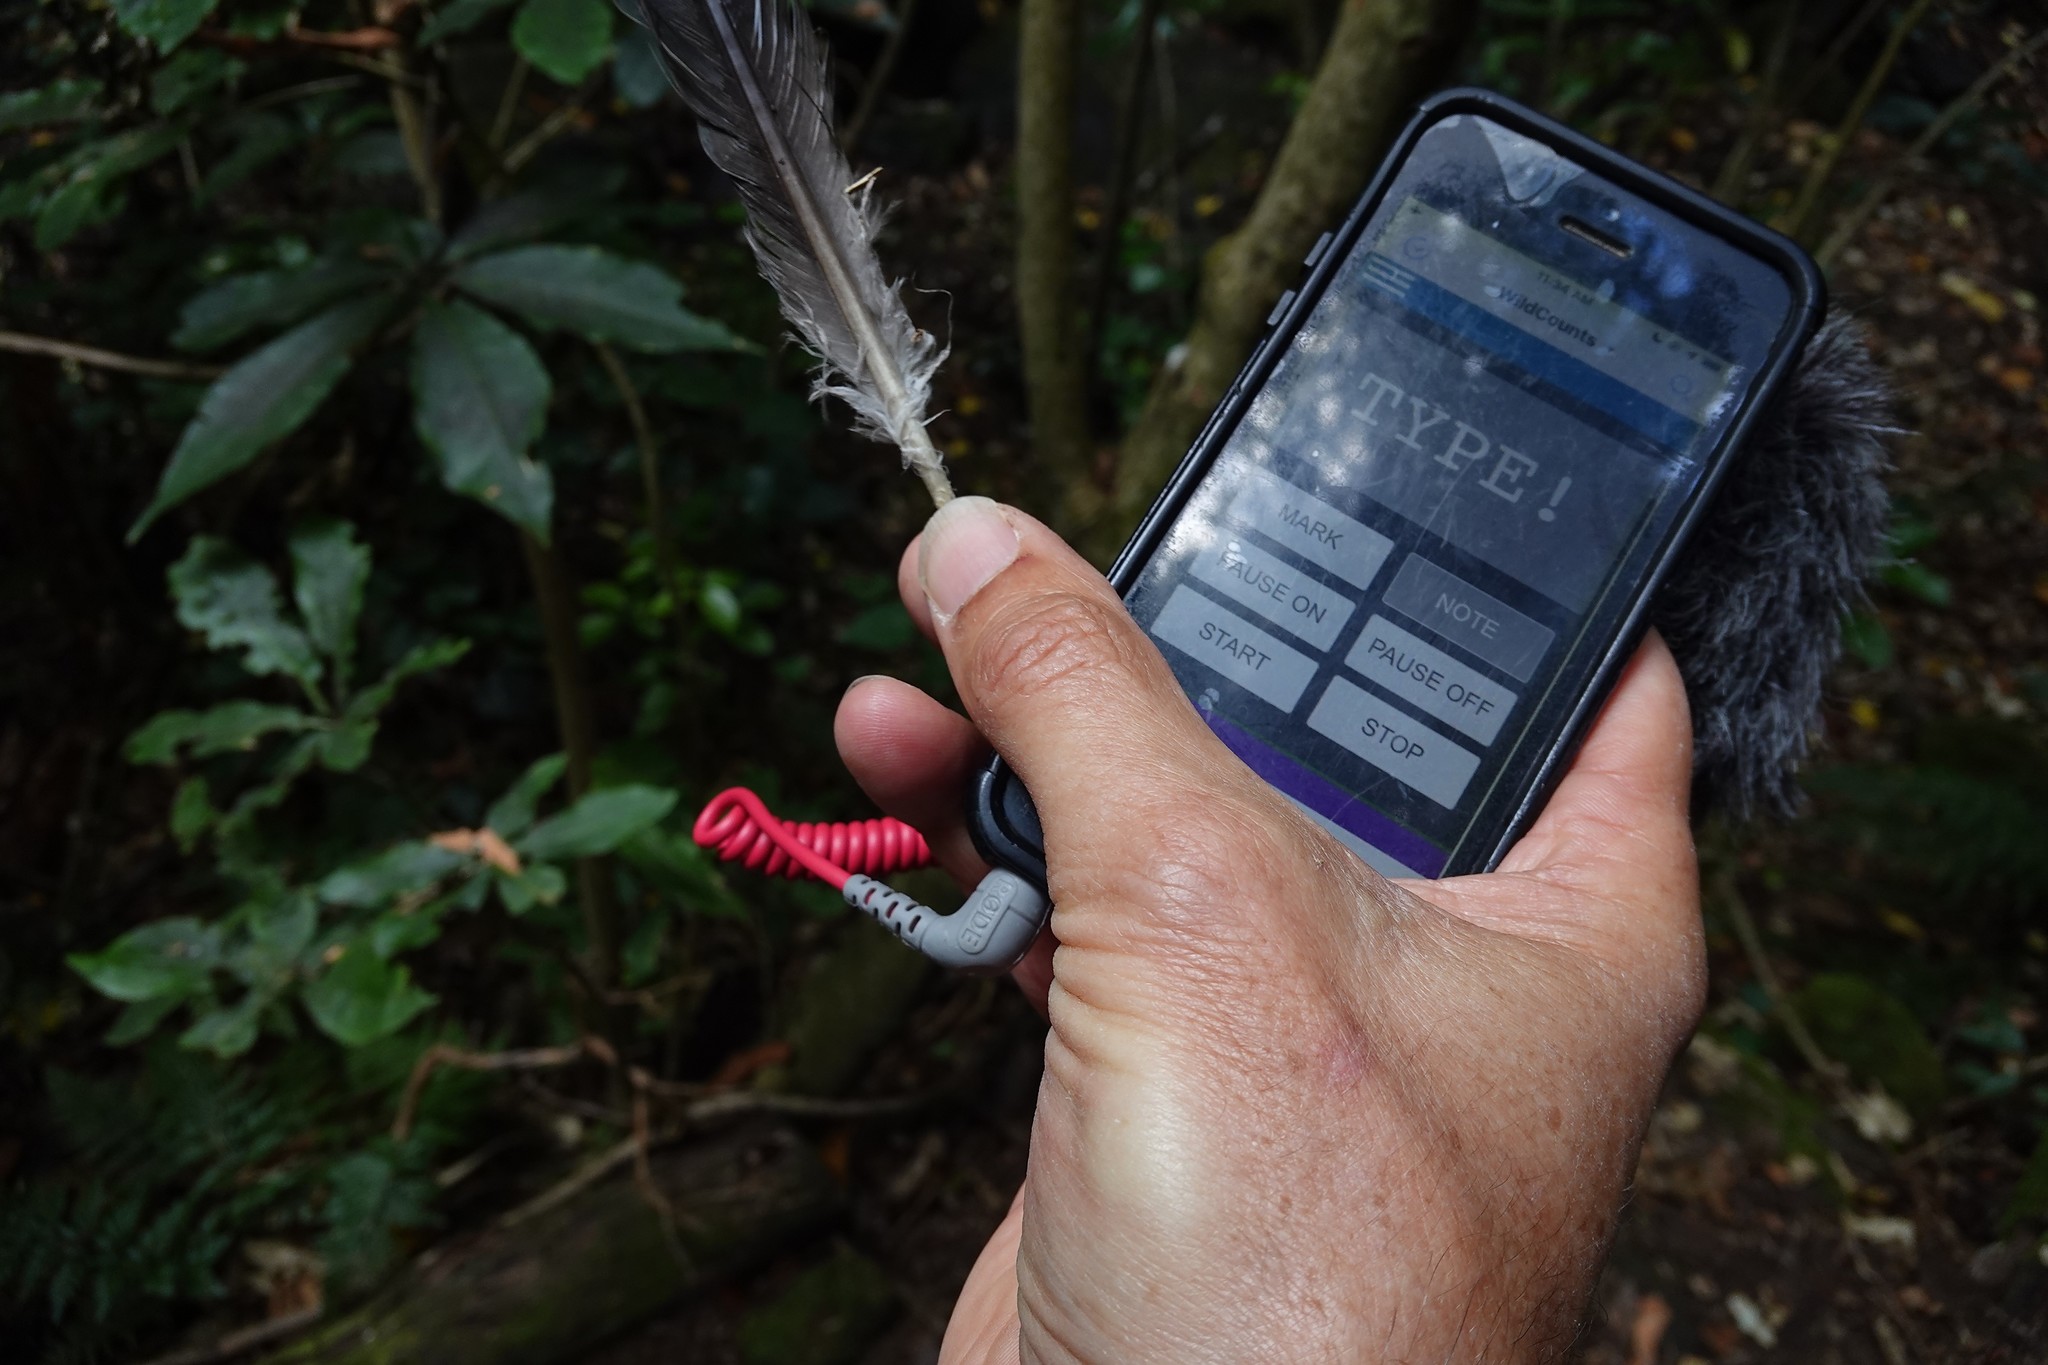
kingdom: Animalia
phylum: Chordata
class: Aves
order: Columbiformes
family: Columbidae
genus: Hemiphaga
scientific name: Hemiphaga novaeseelandiae
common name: New zealand pigeon
